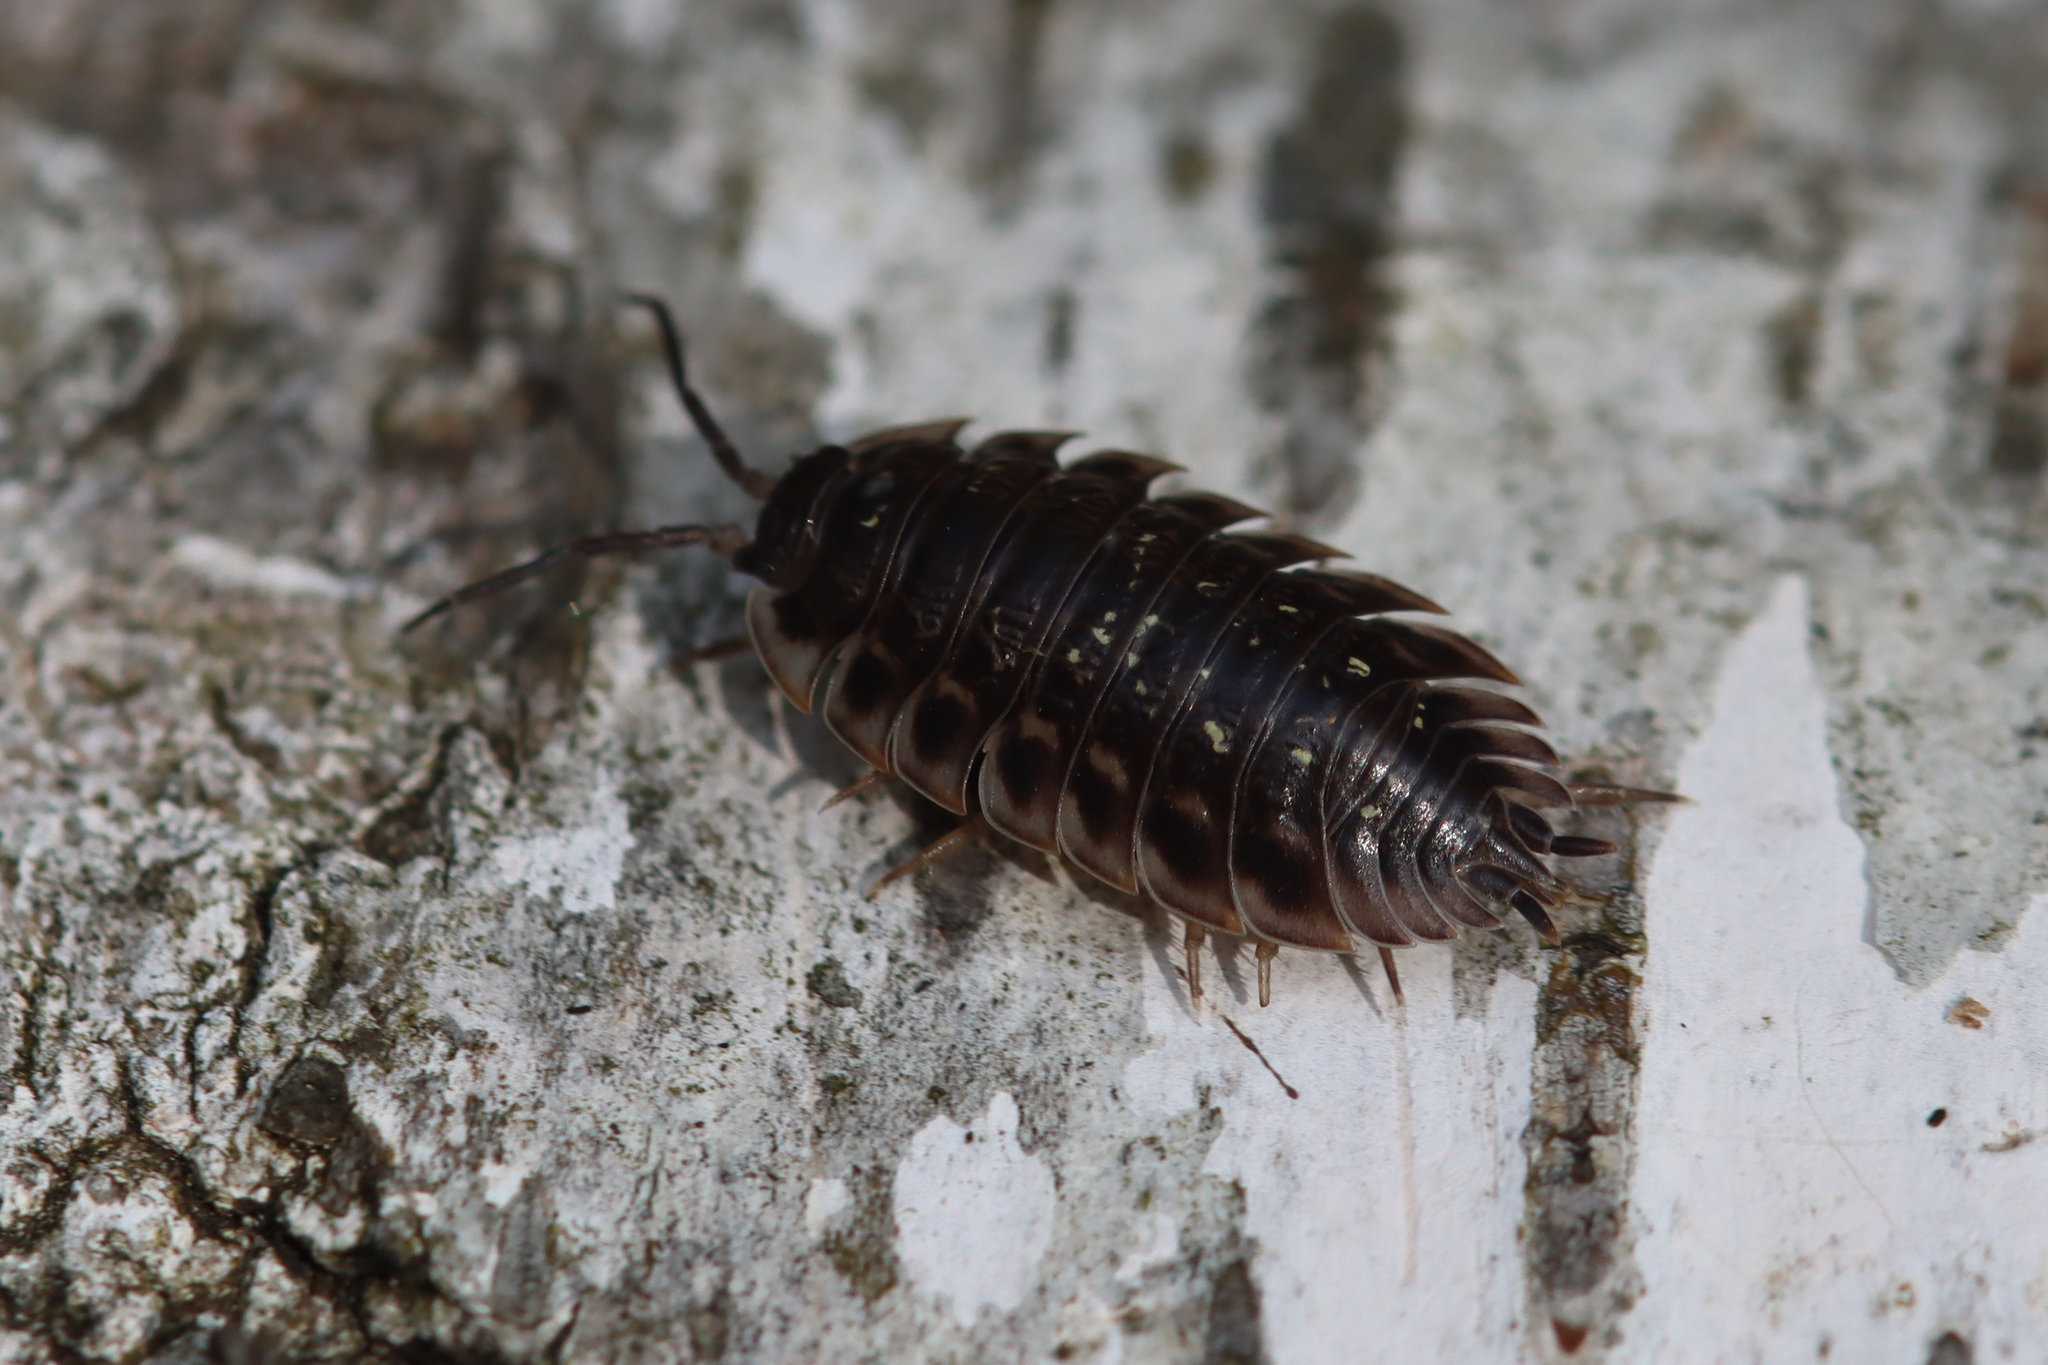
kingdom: Animalia
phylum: Arthropoda
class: Malacostraca
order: Isopoda
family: Oniscidae
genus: Oniscus
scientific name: Oniscus asellus
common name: Common shiny woodlouse
